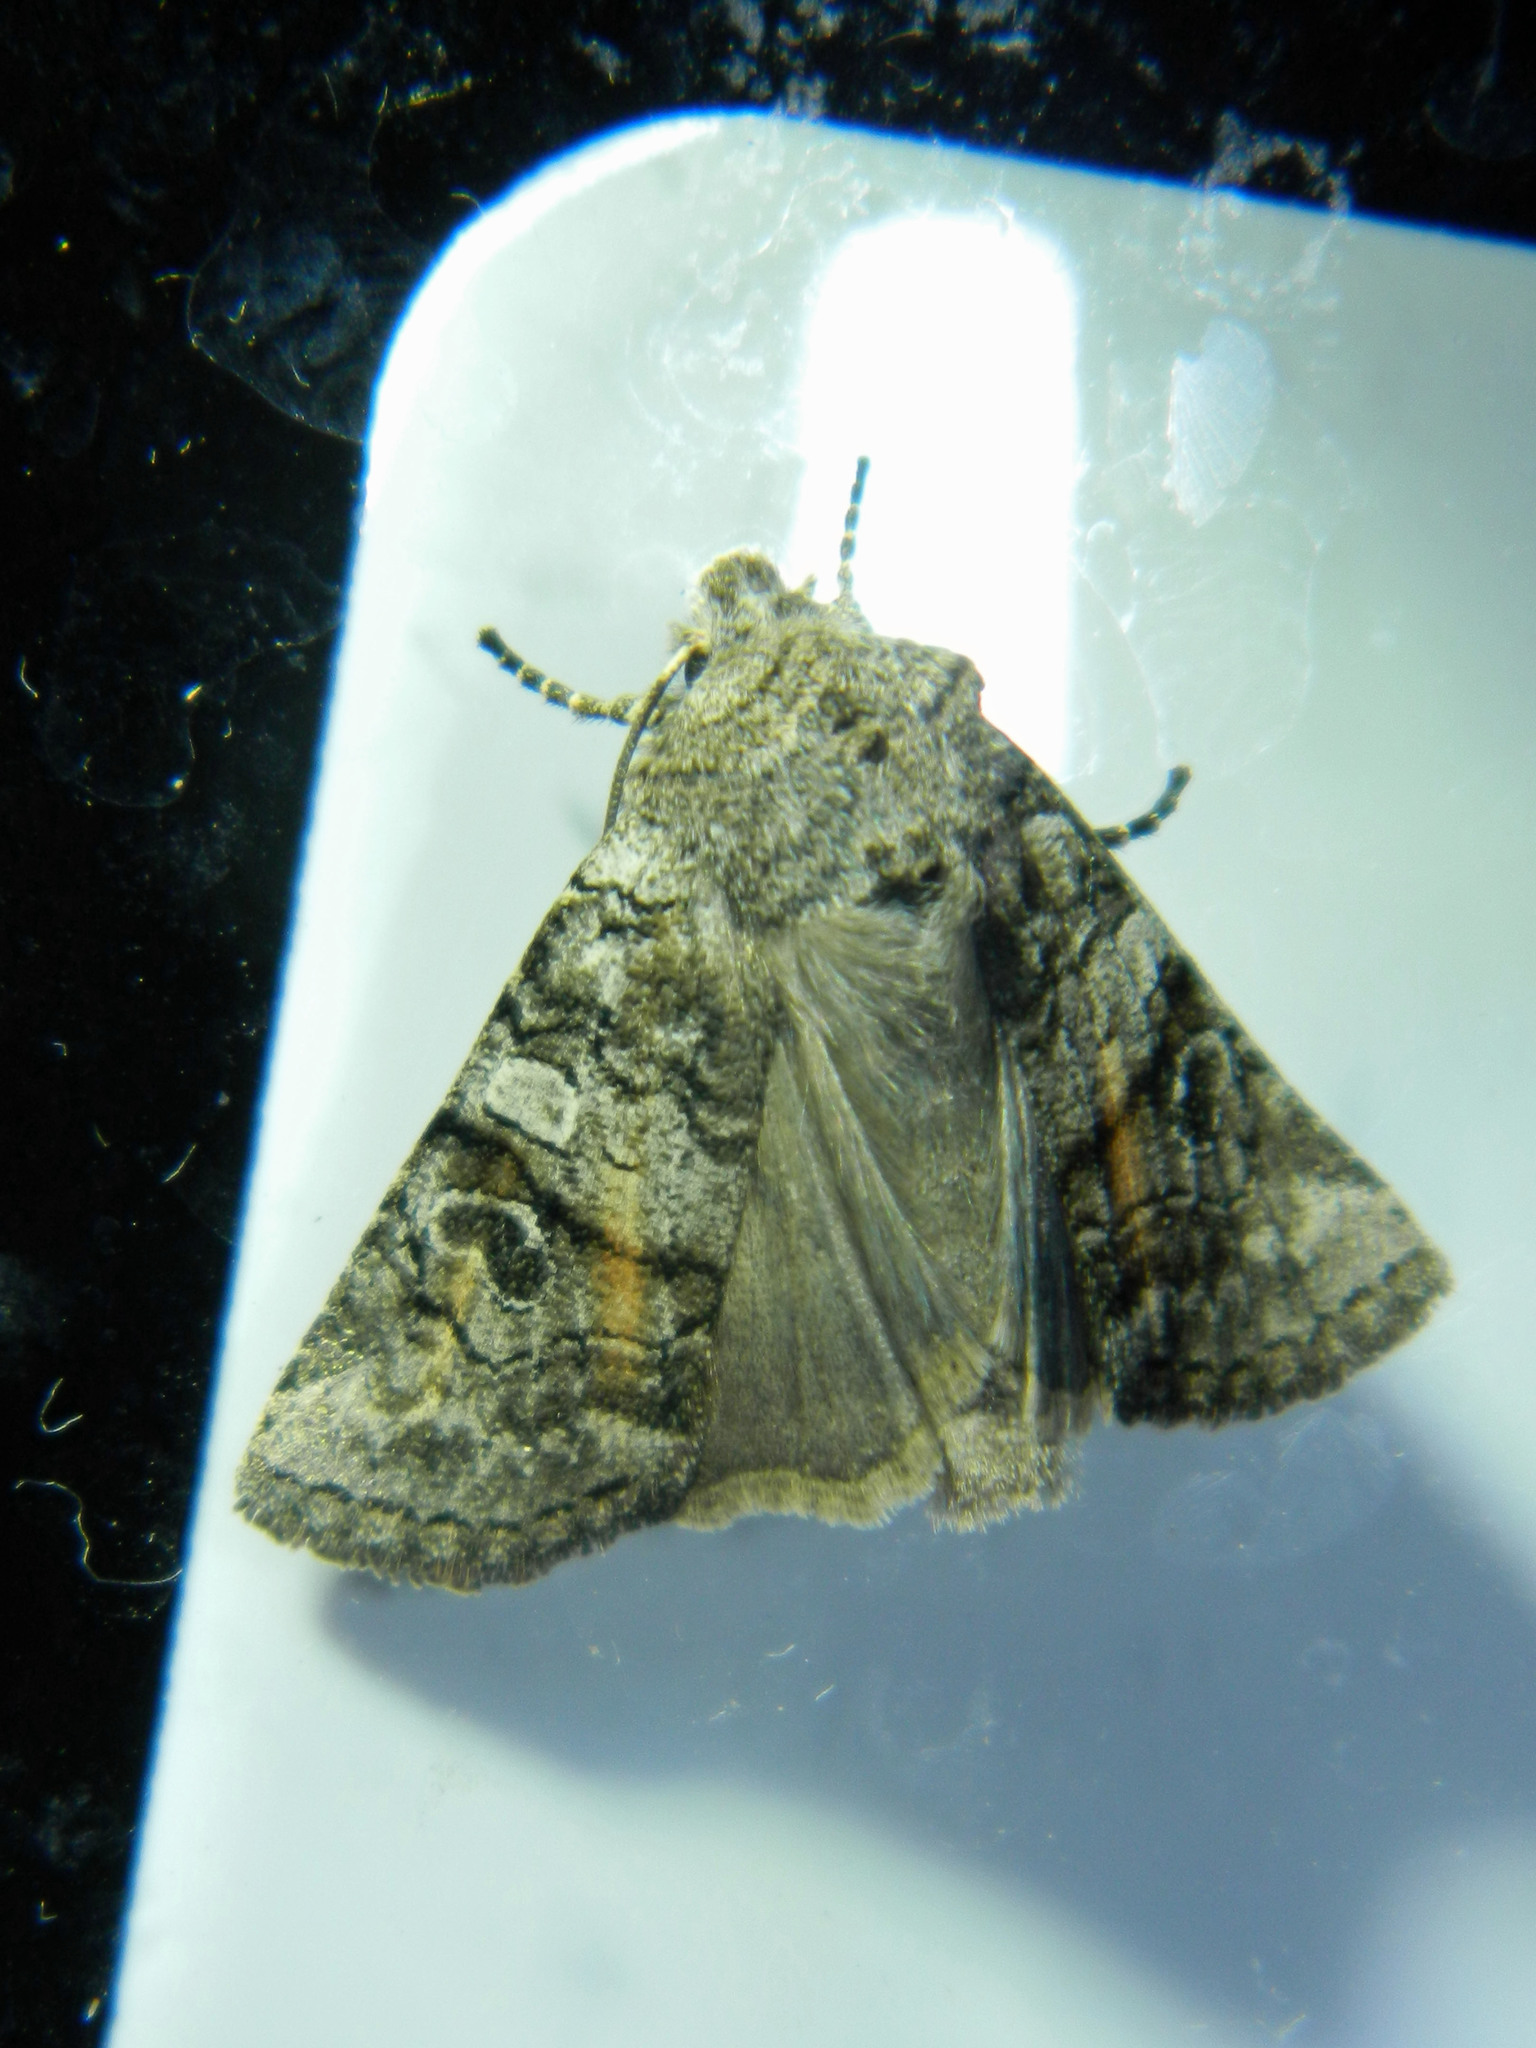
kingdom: Animalia
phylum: Arthropoda
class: Insecta
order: Lepidoptera
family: Noctuidae
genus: Litholomia
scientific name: Litholomia napaea
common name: False pinion moth
